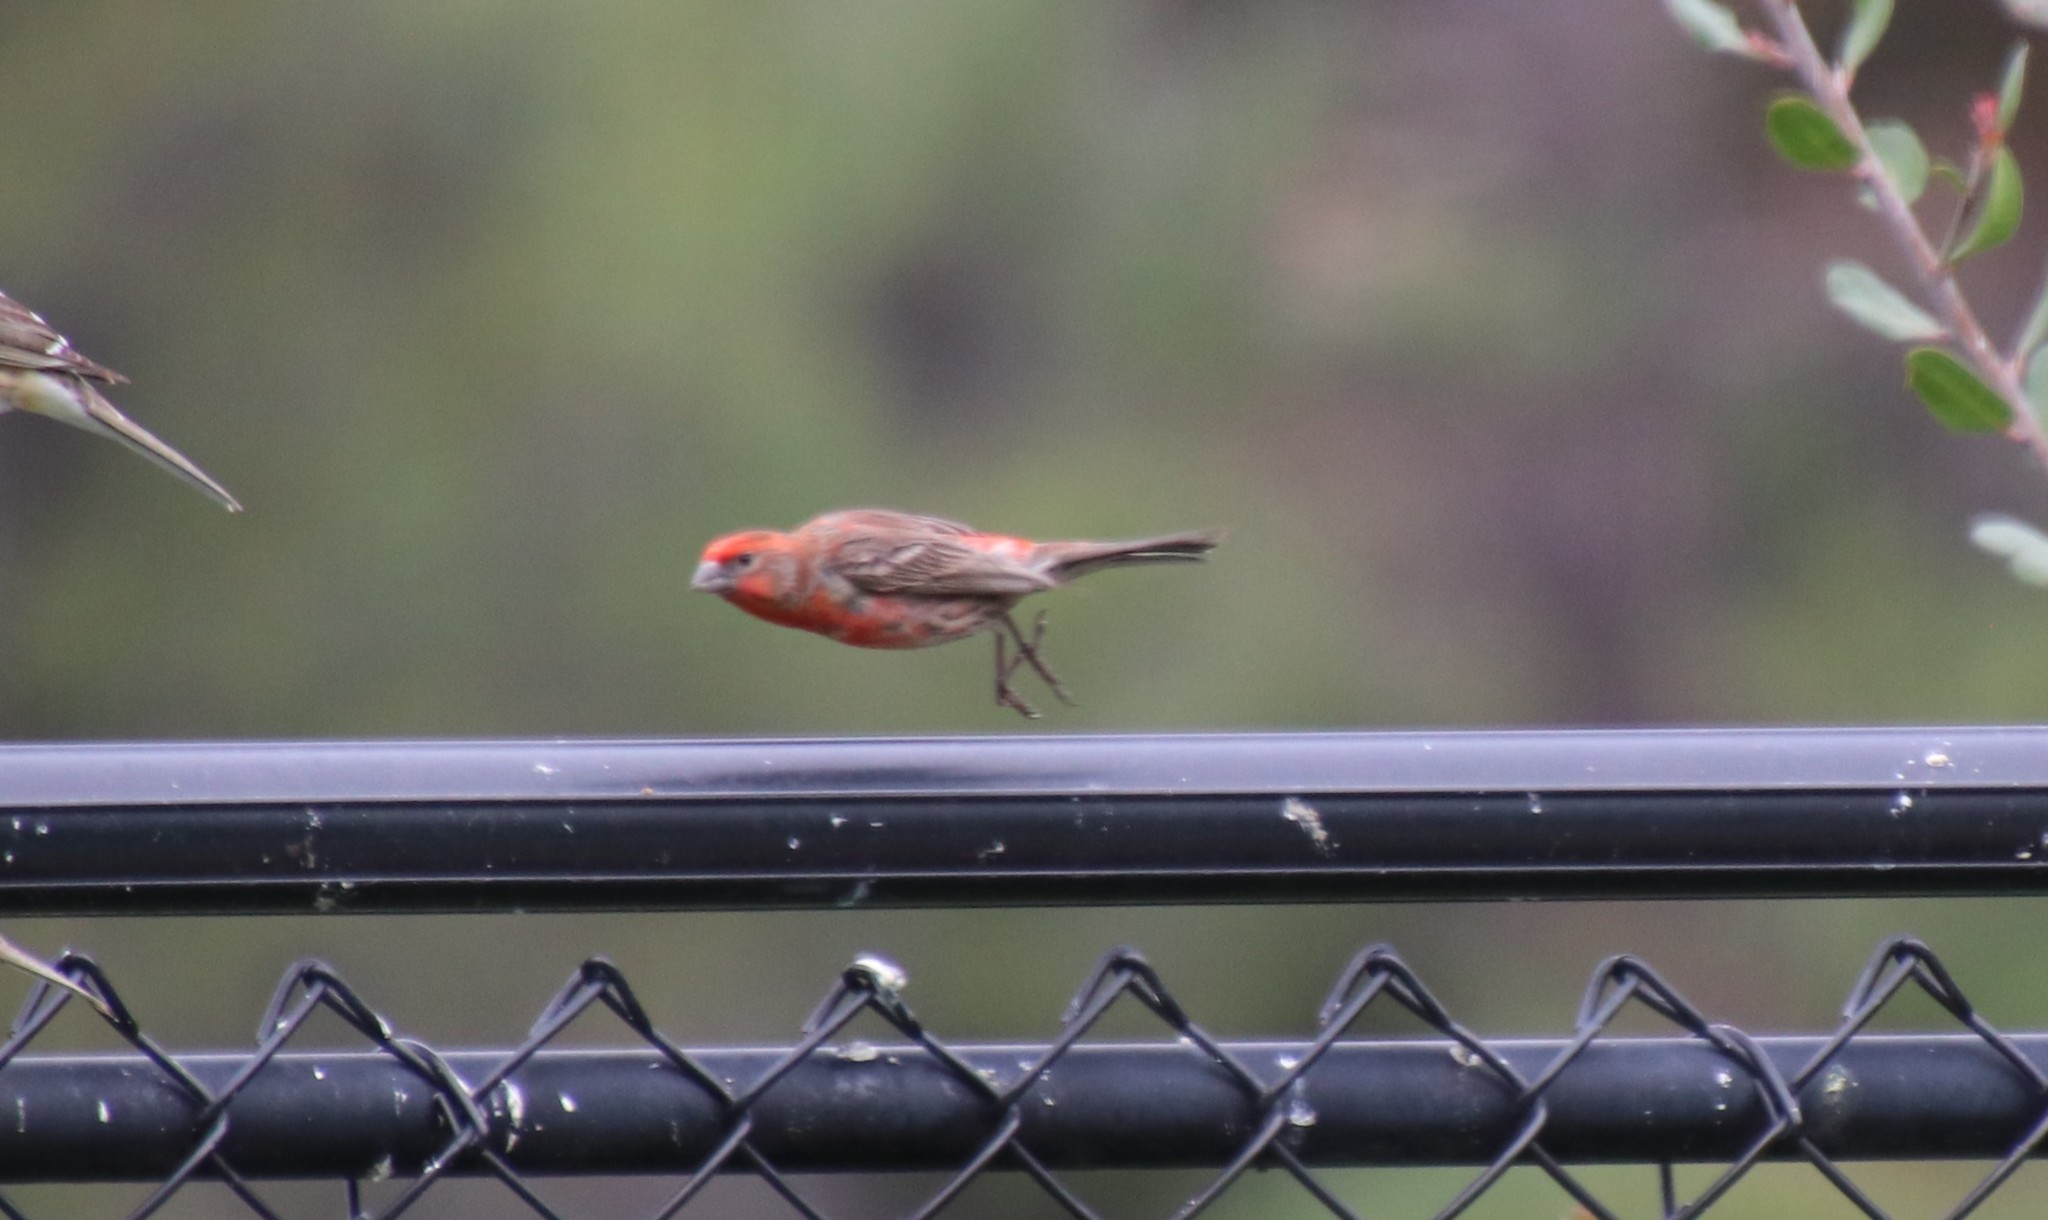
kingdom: Animalia
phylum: Chordata
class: Aves
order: Passeriformes
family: Fringillidae
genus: Haemorhous
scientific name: Haemorhous mexicanus
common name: House finch
